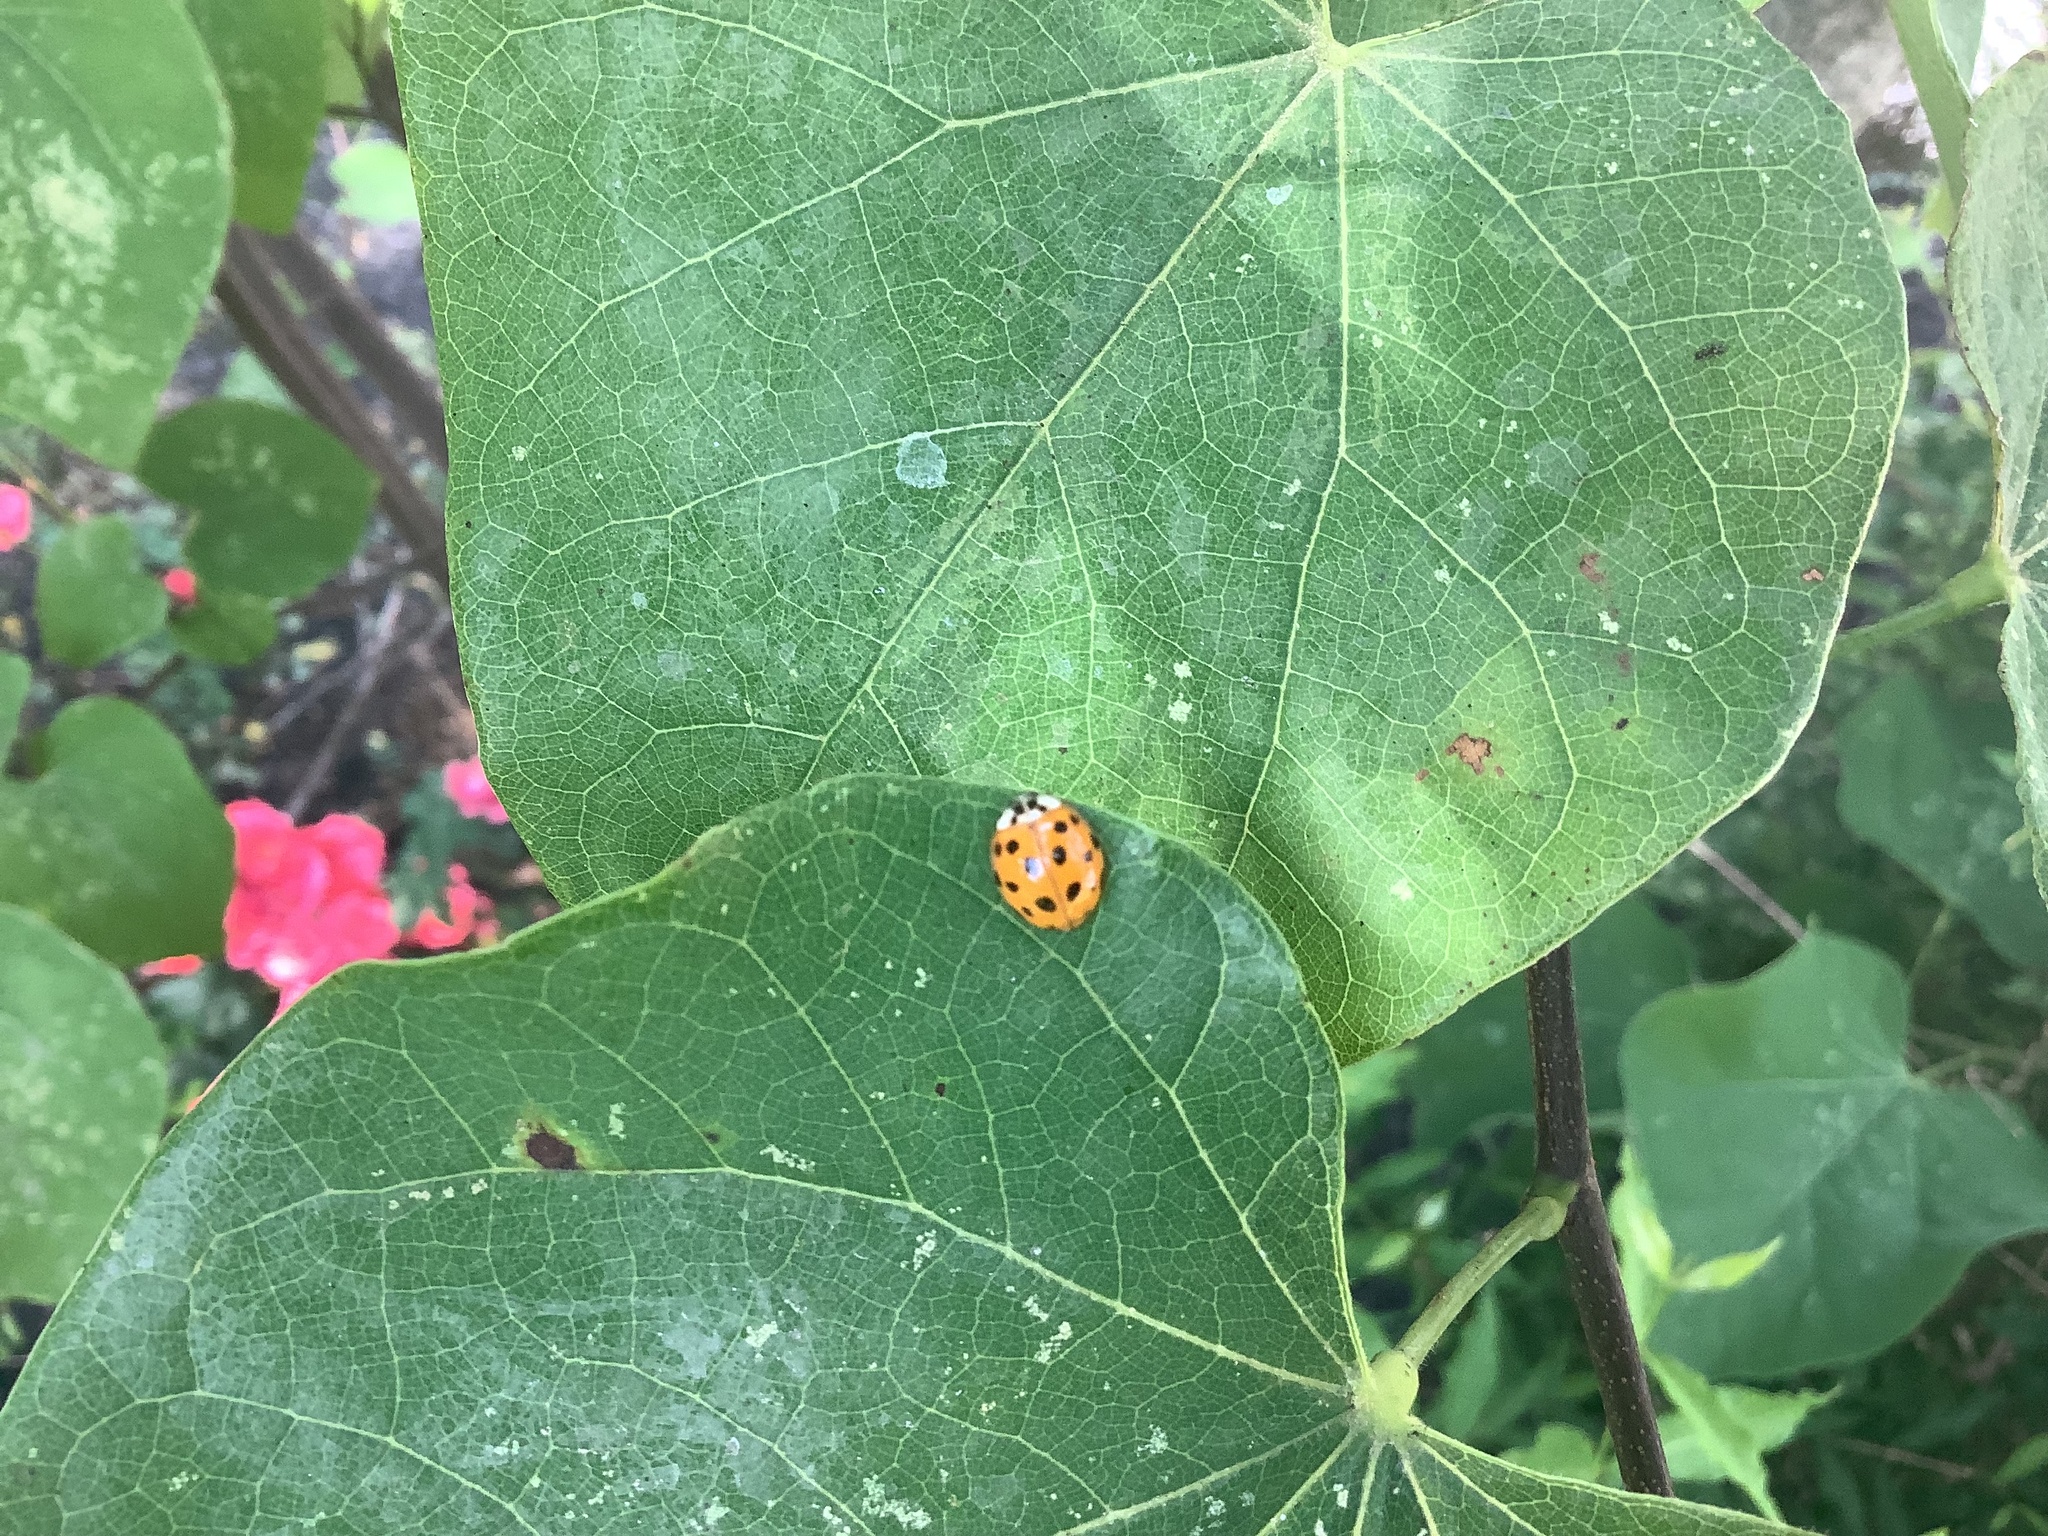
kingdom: Animalia
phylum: Arthropoda
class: Insecta
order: Coleoptera
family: Coccinellidae
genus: Harmonia
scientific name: Harmonia axyridis
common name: Harlequin ladybird
